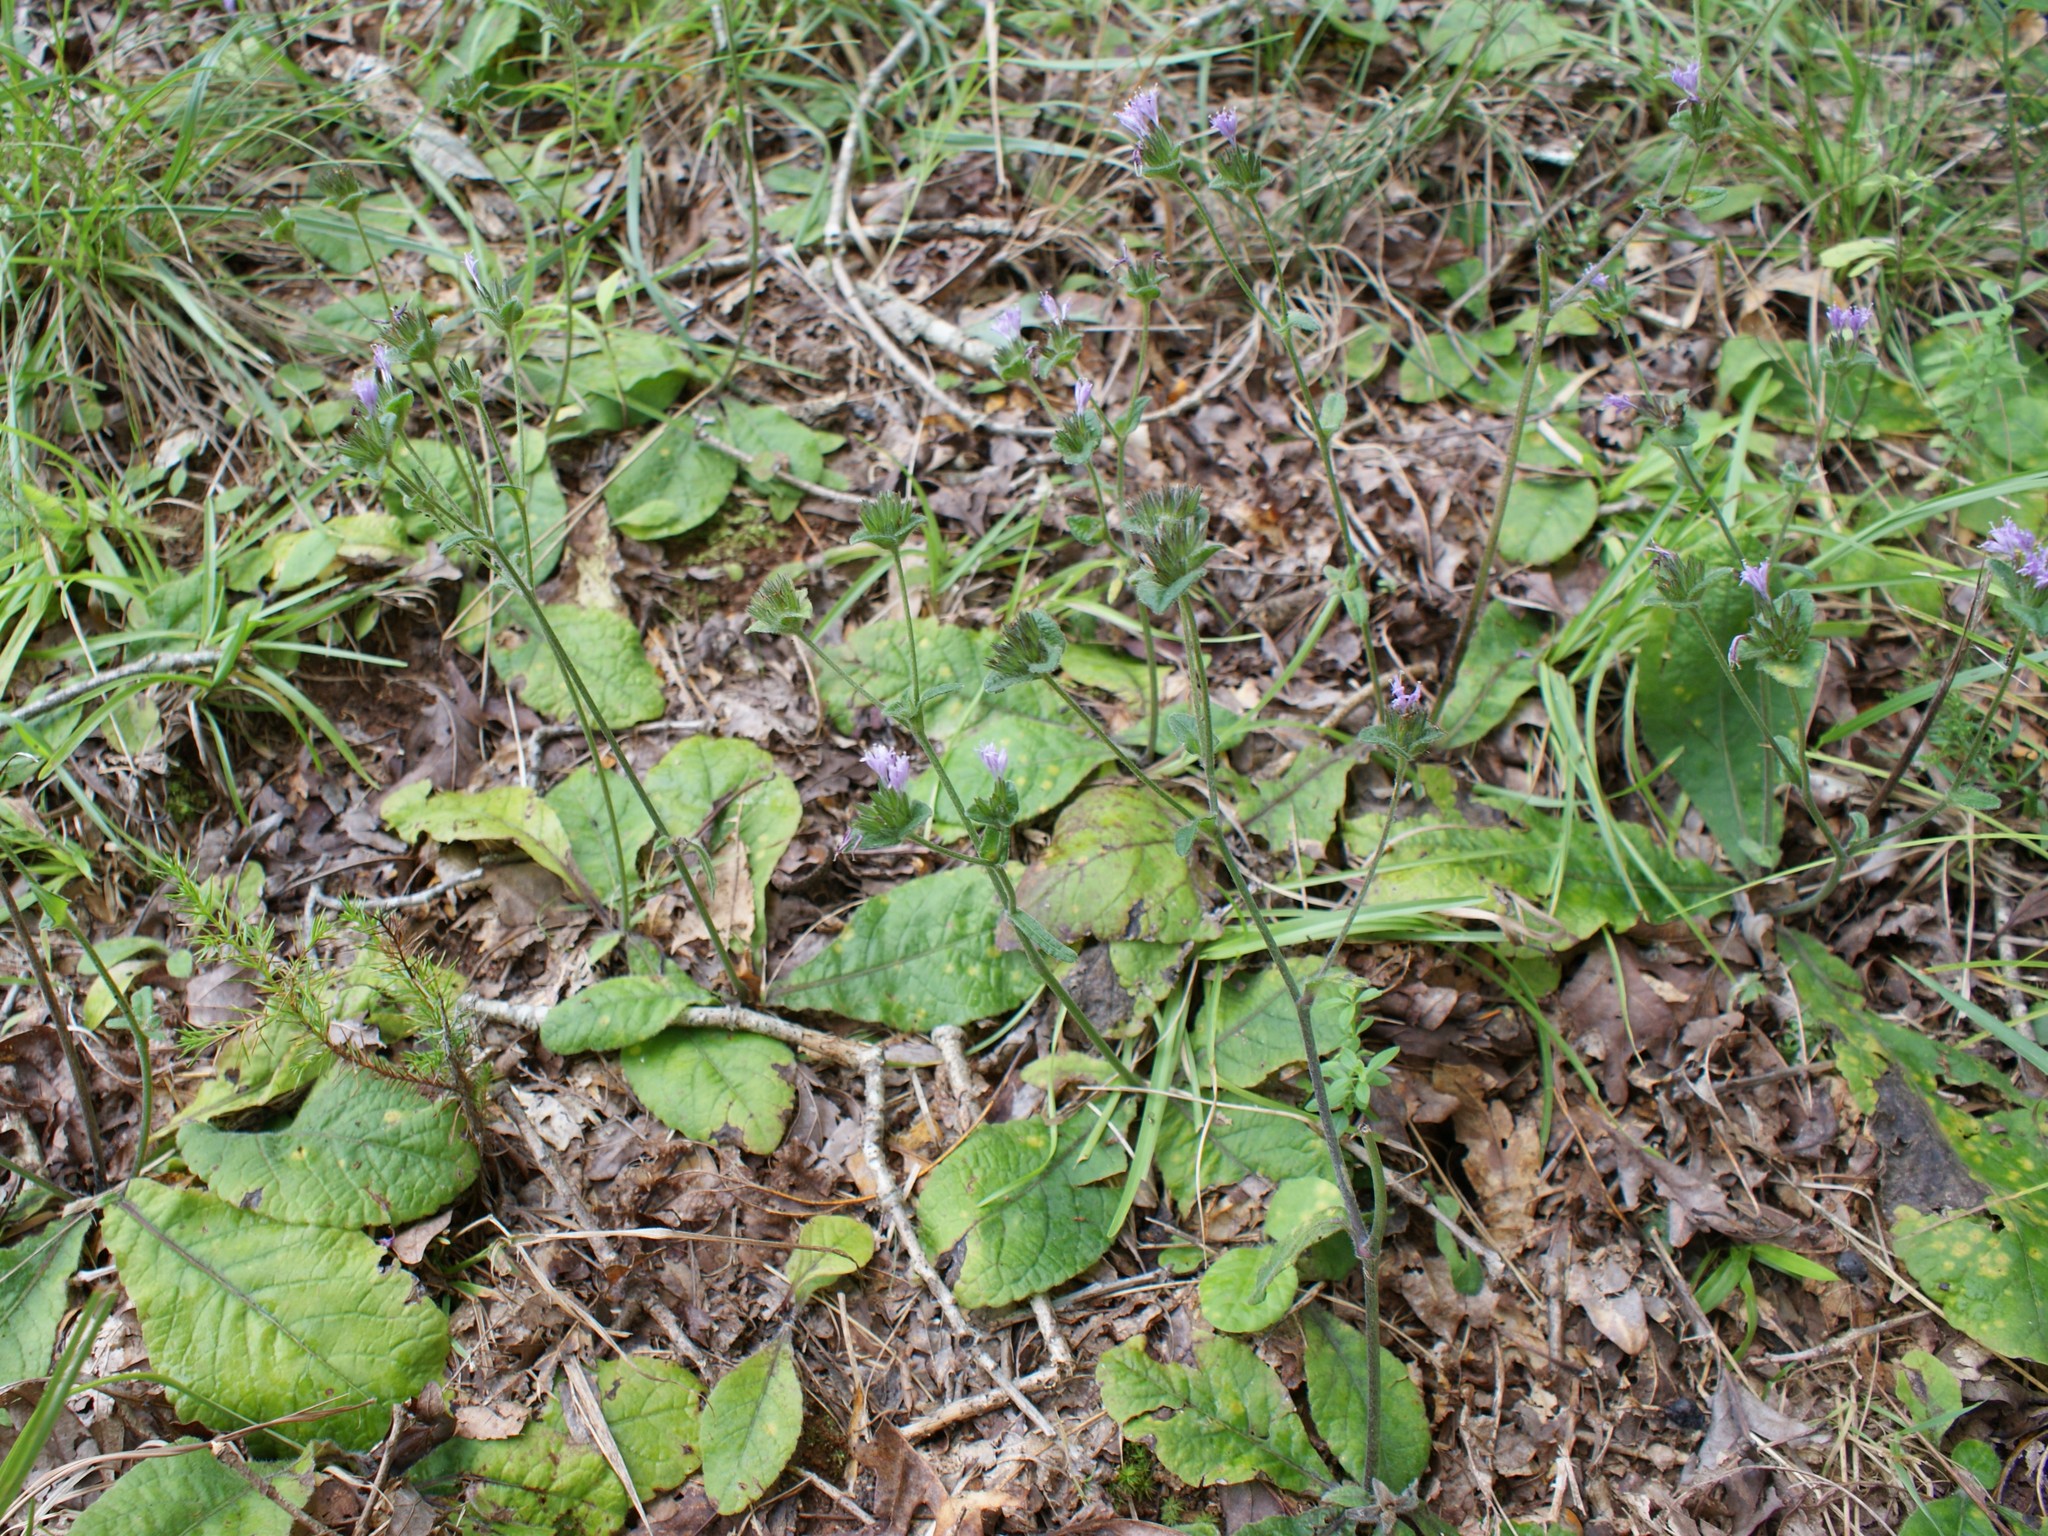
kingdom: Plantae
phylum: Tracheophyta
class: Magnoliopsida
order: Asterales
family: Asteraceae
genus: Elephantopus
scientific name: Elephantopus tomentosus
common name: Tobacco-weed
